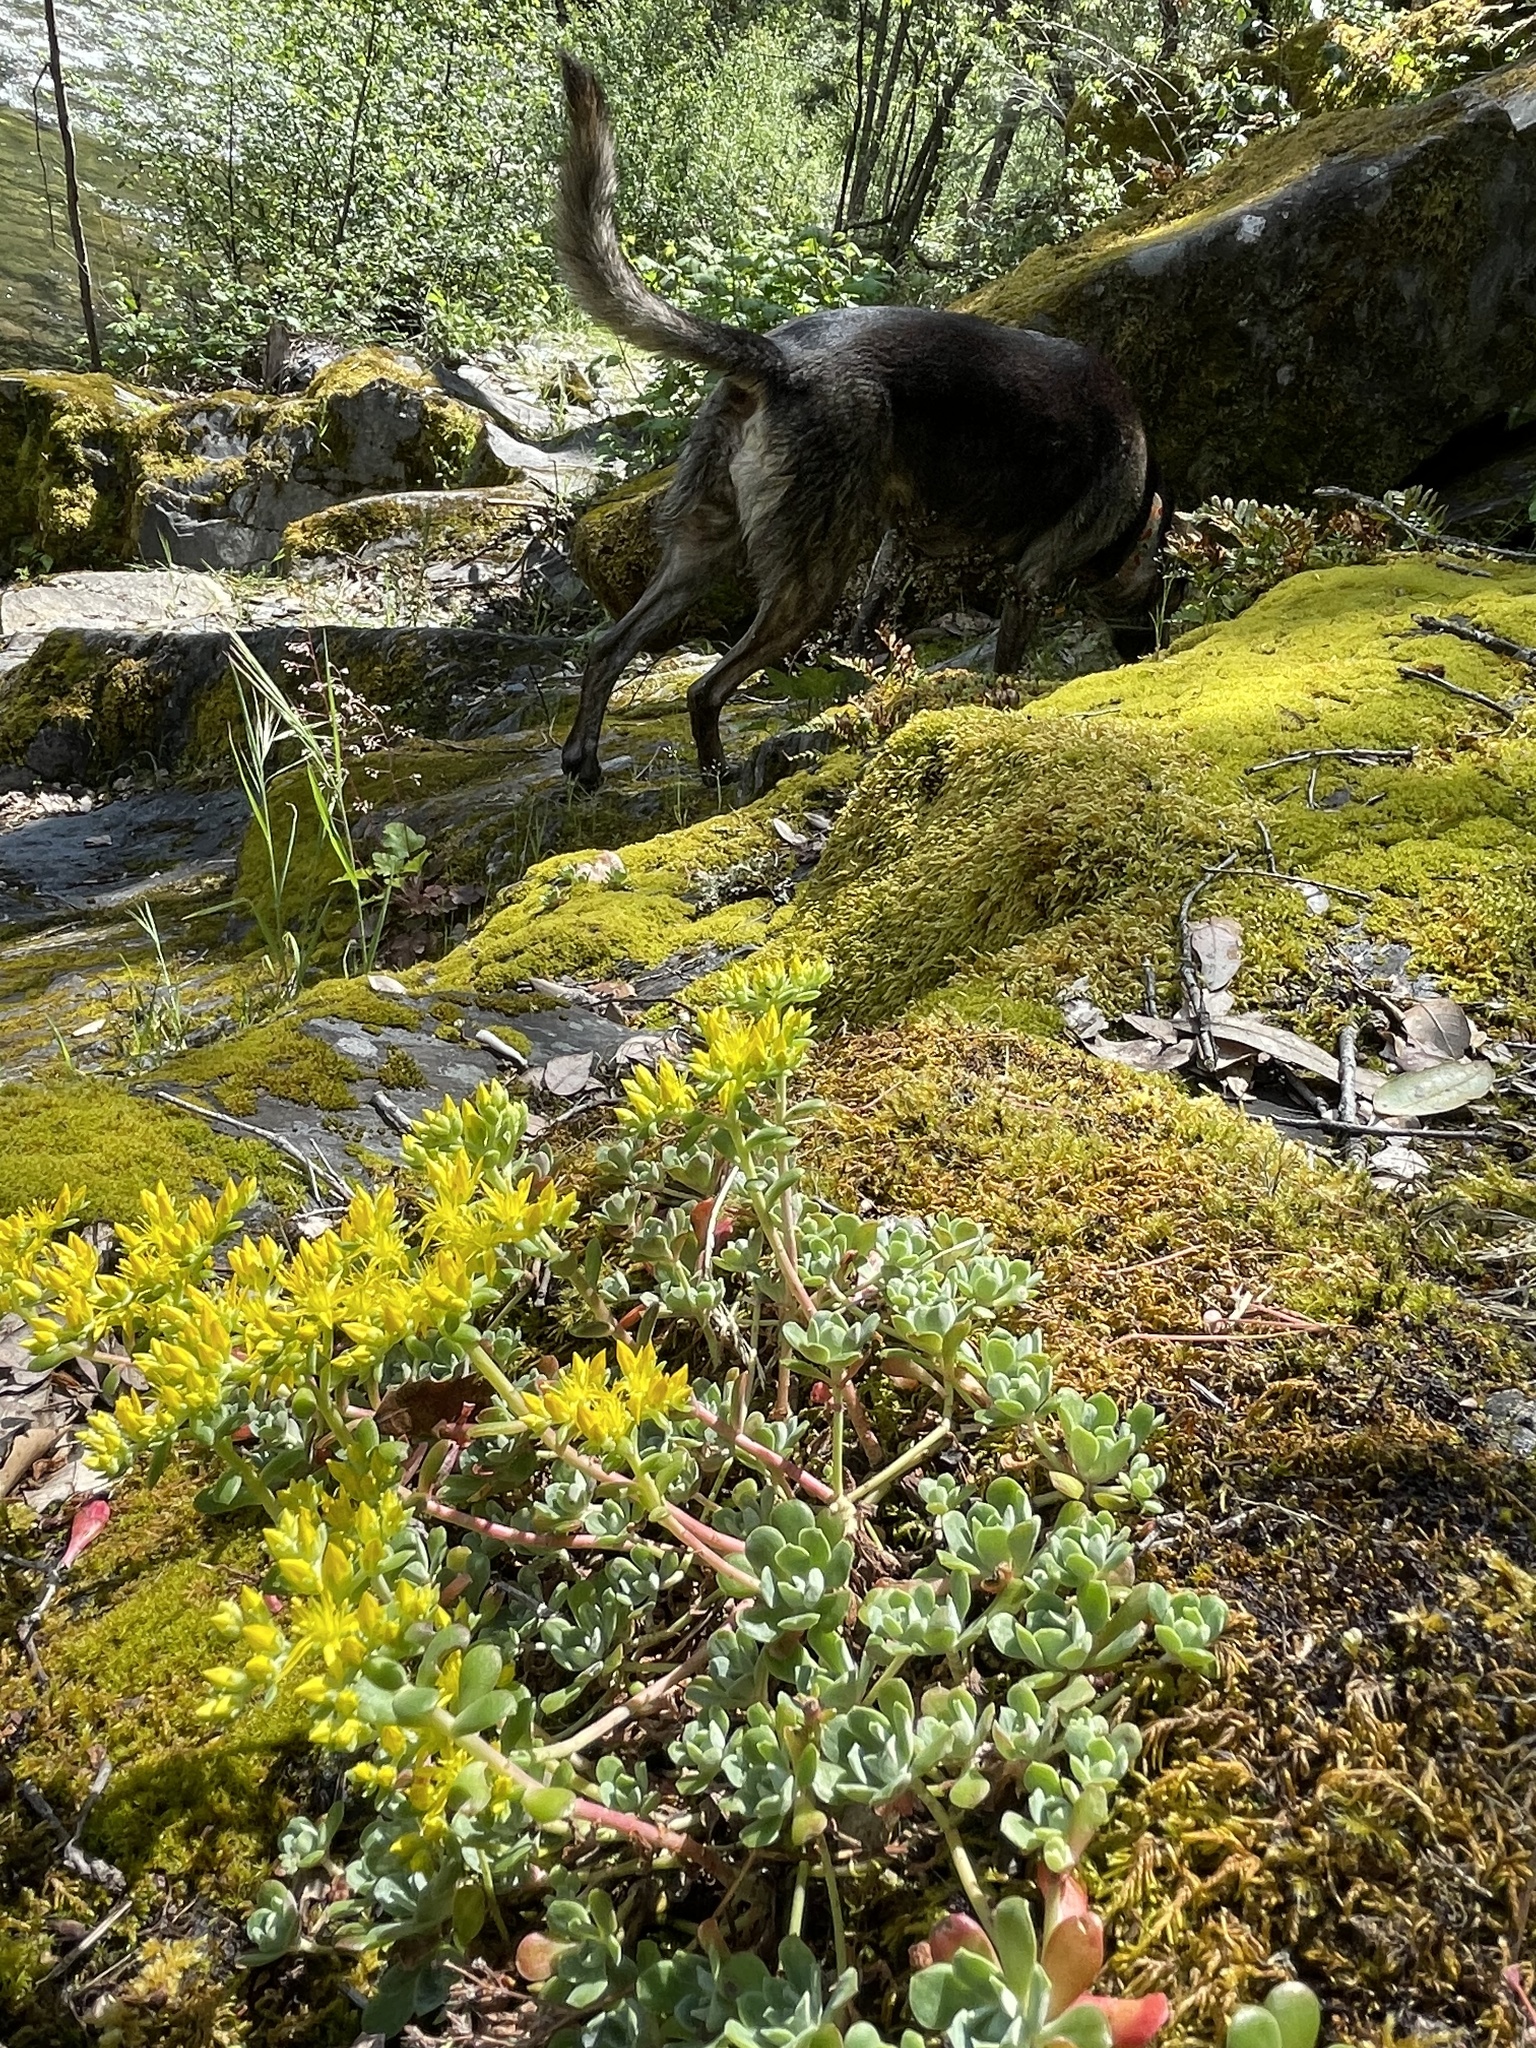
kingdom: Plantae
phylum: Tracheophyta
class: Magnoliopsida
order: Saxifragales
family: Crassulaceae
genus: Sedum
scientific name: Sedum spathulifolium
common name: Colorado stonecrop
